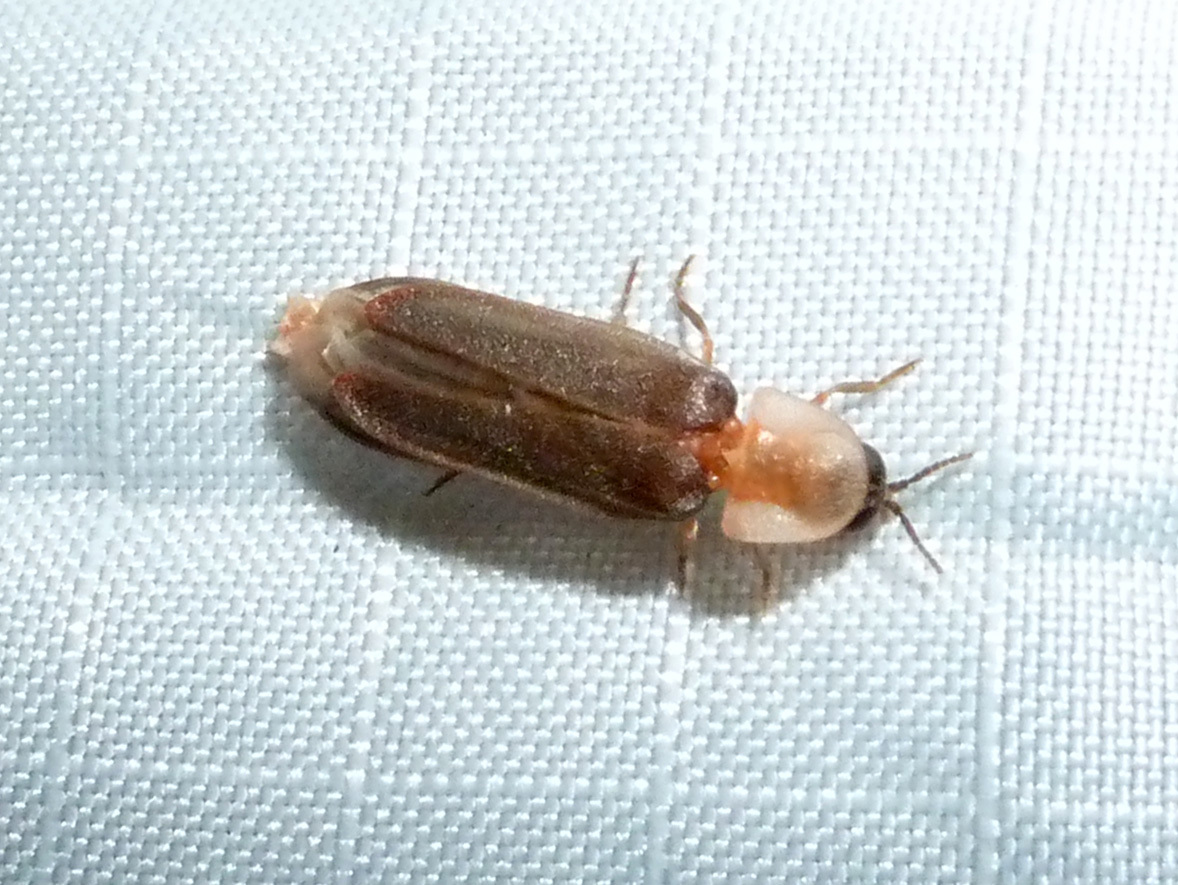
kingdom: Animalia
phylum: Arthropoda
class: Insecta
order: Coleoptera
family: Lampyridae
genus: Microphotus
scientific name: Microphotus angustus
